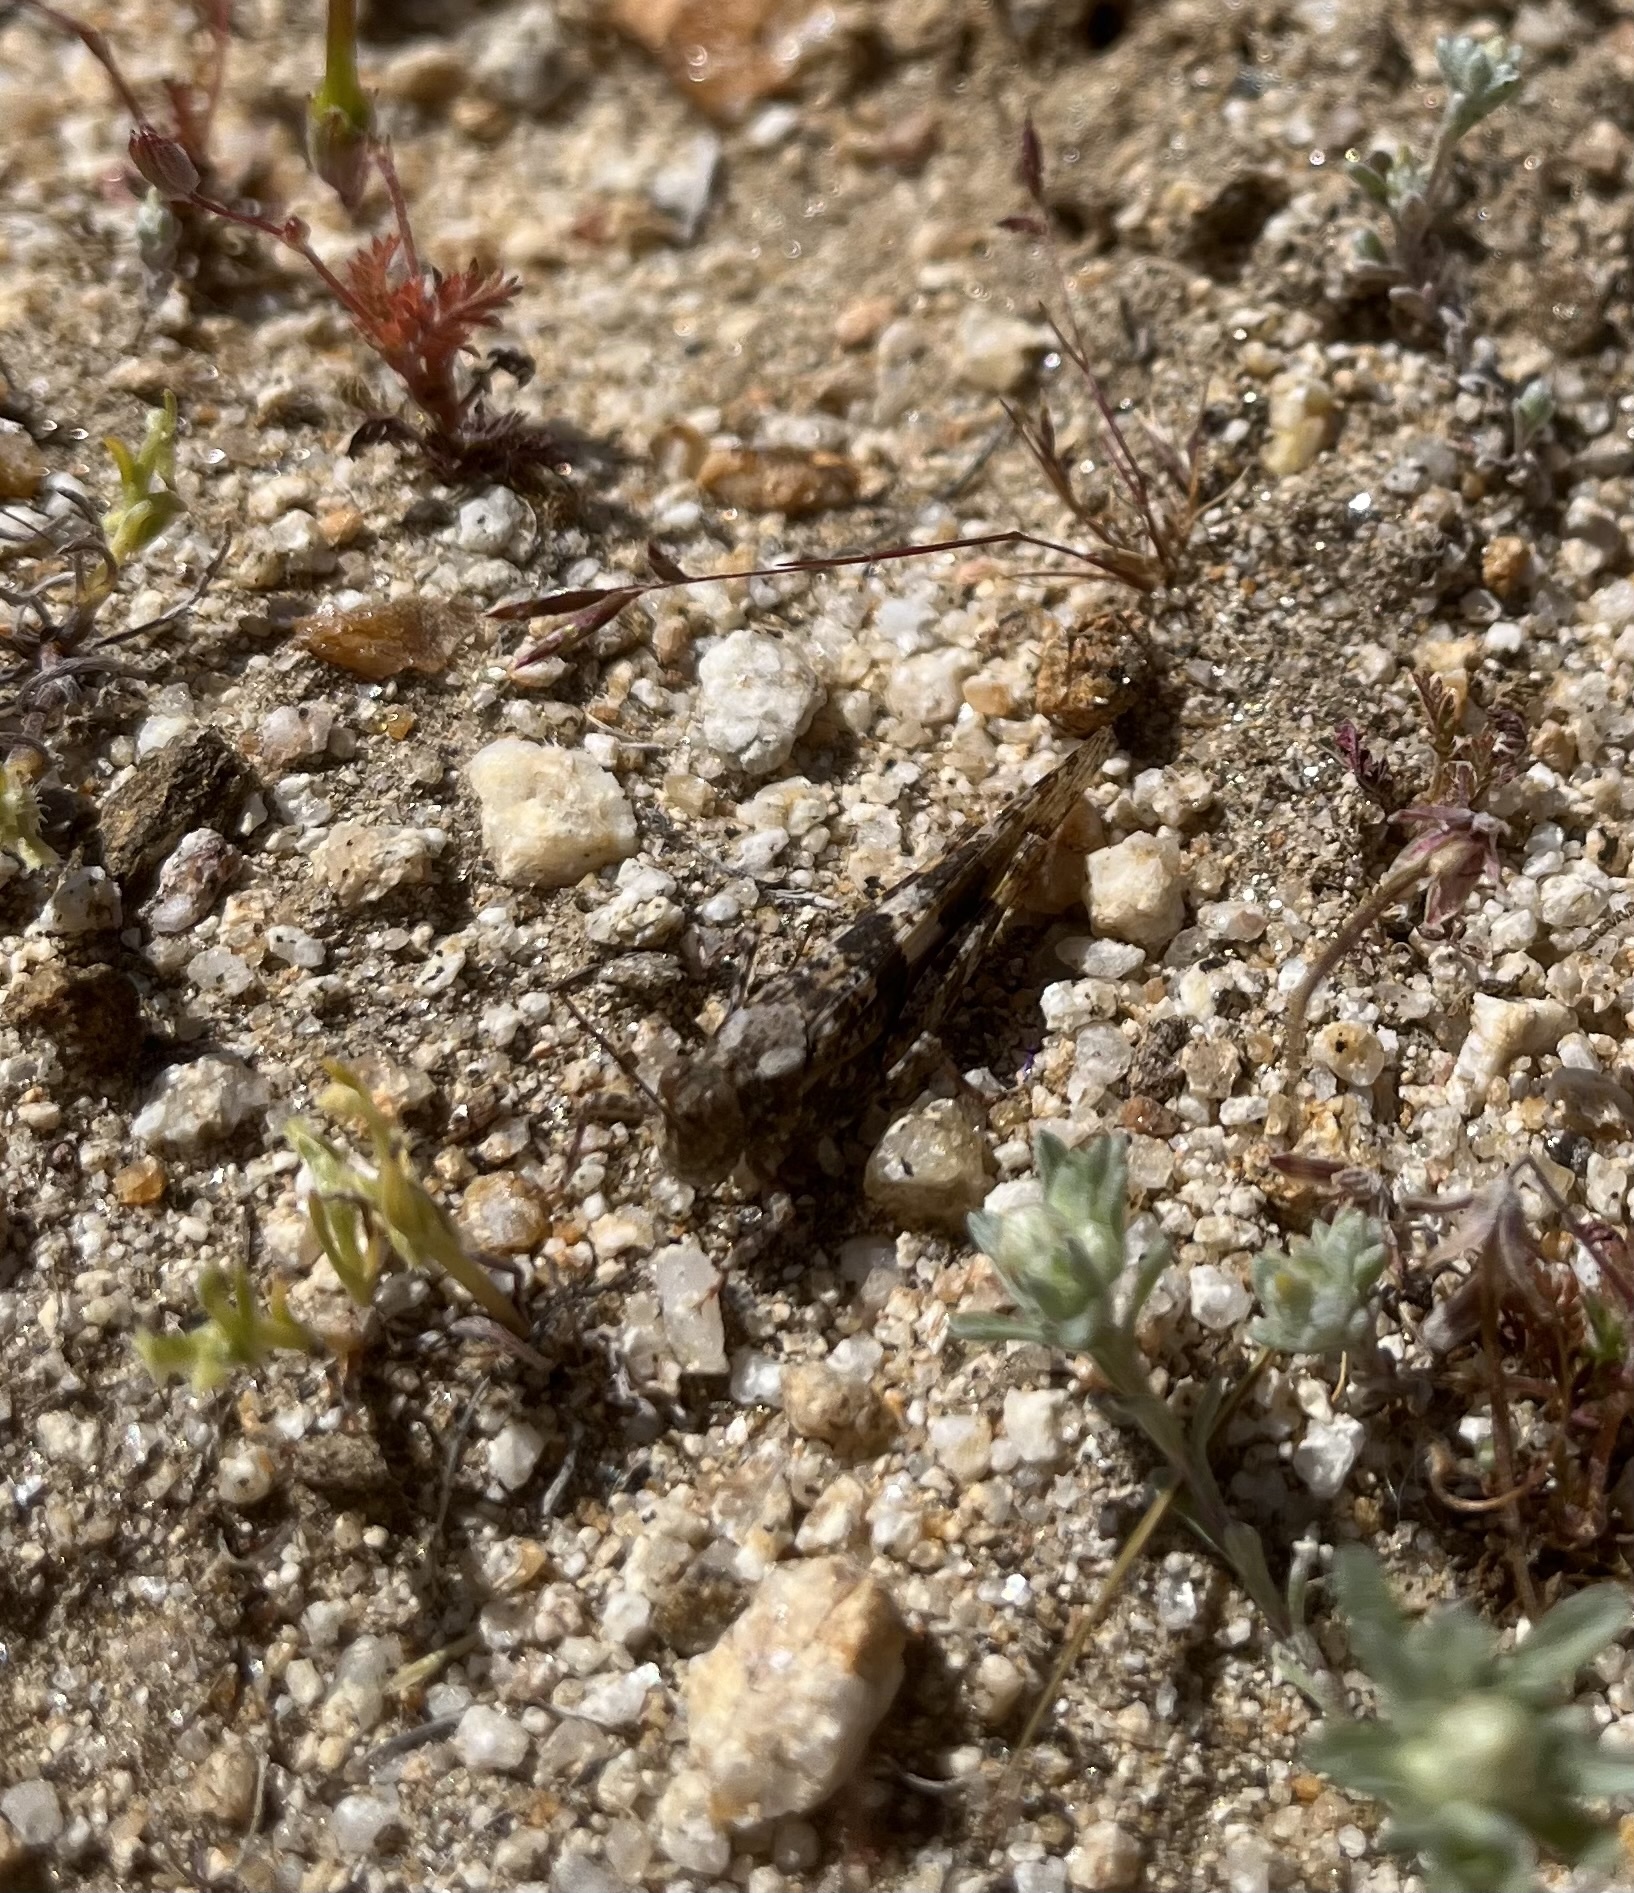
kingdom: Animalia
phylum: Arthropoda
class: Insecta
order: Orthoptera
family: Acrididae
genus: Trimerotropis
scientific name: Trimerotropis pallidipennis
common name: Pallid-winged grasshopper
